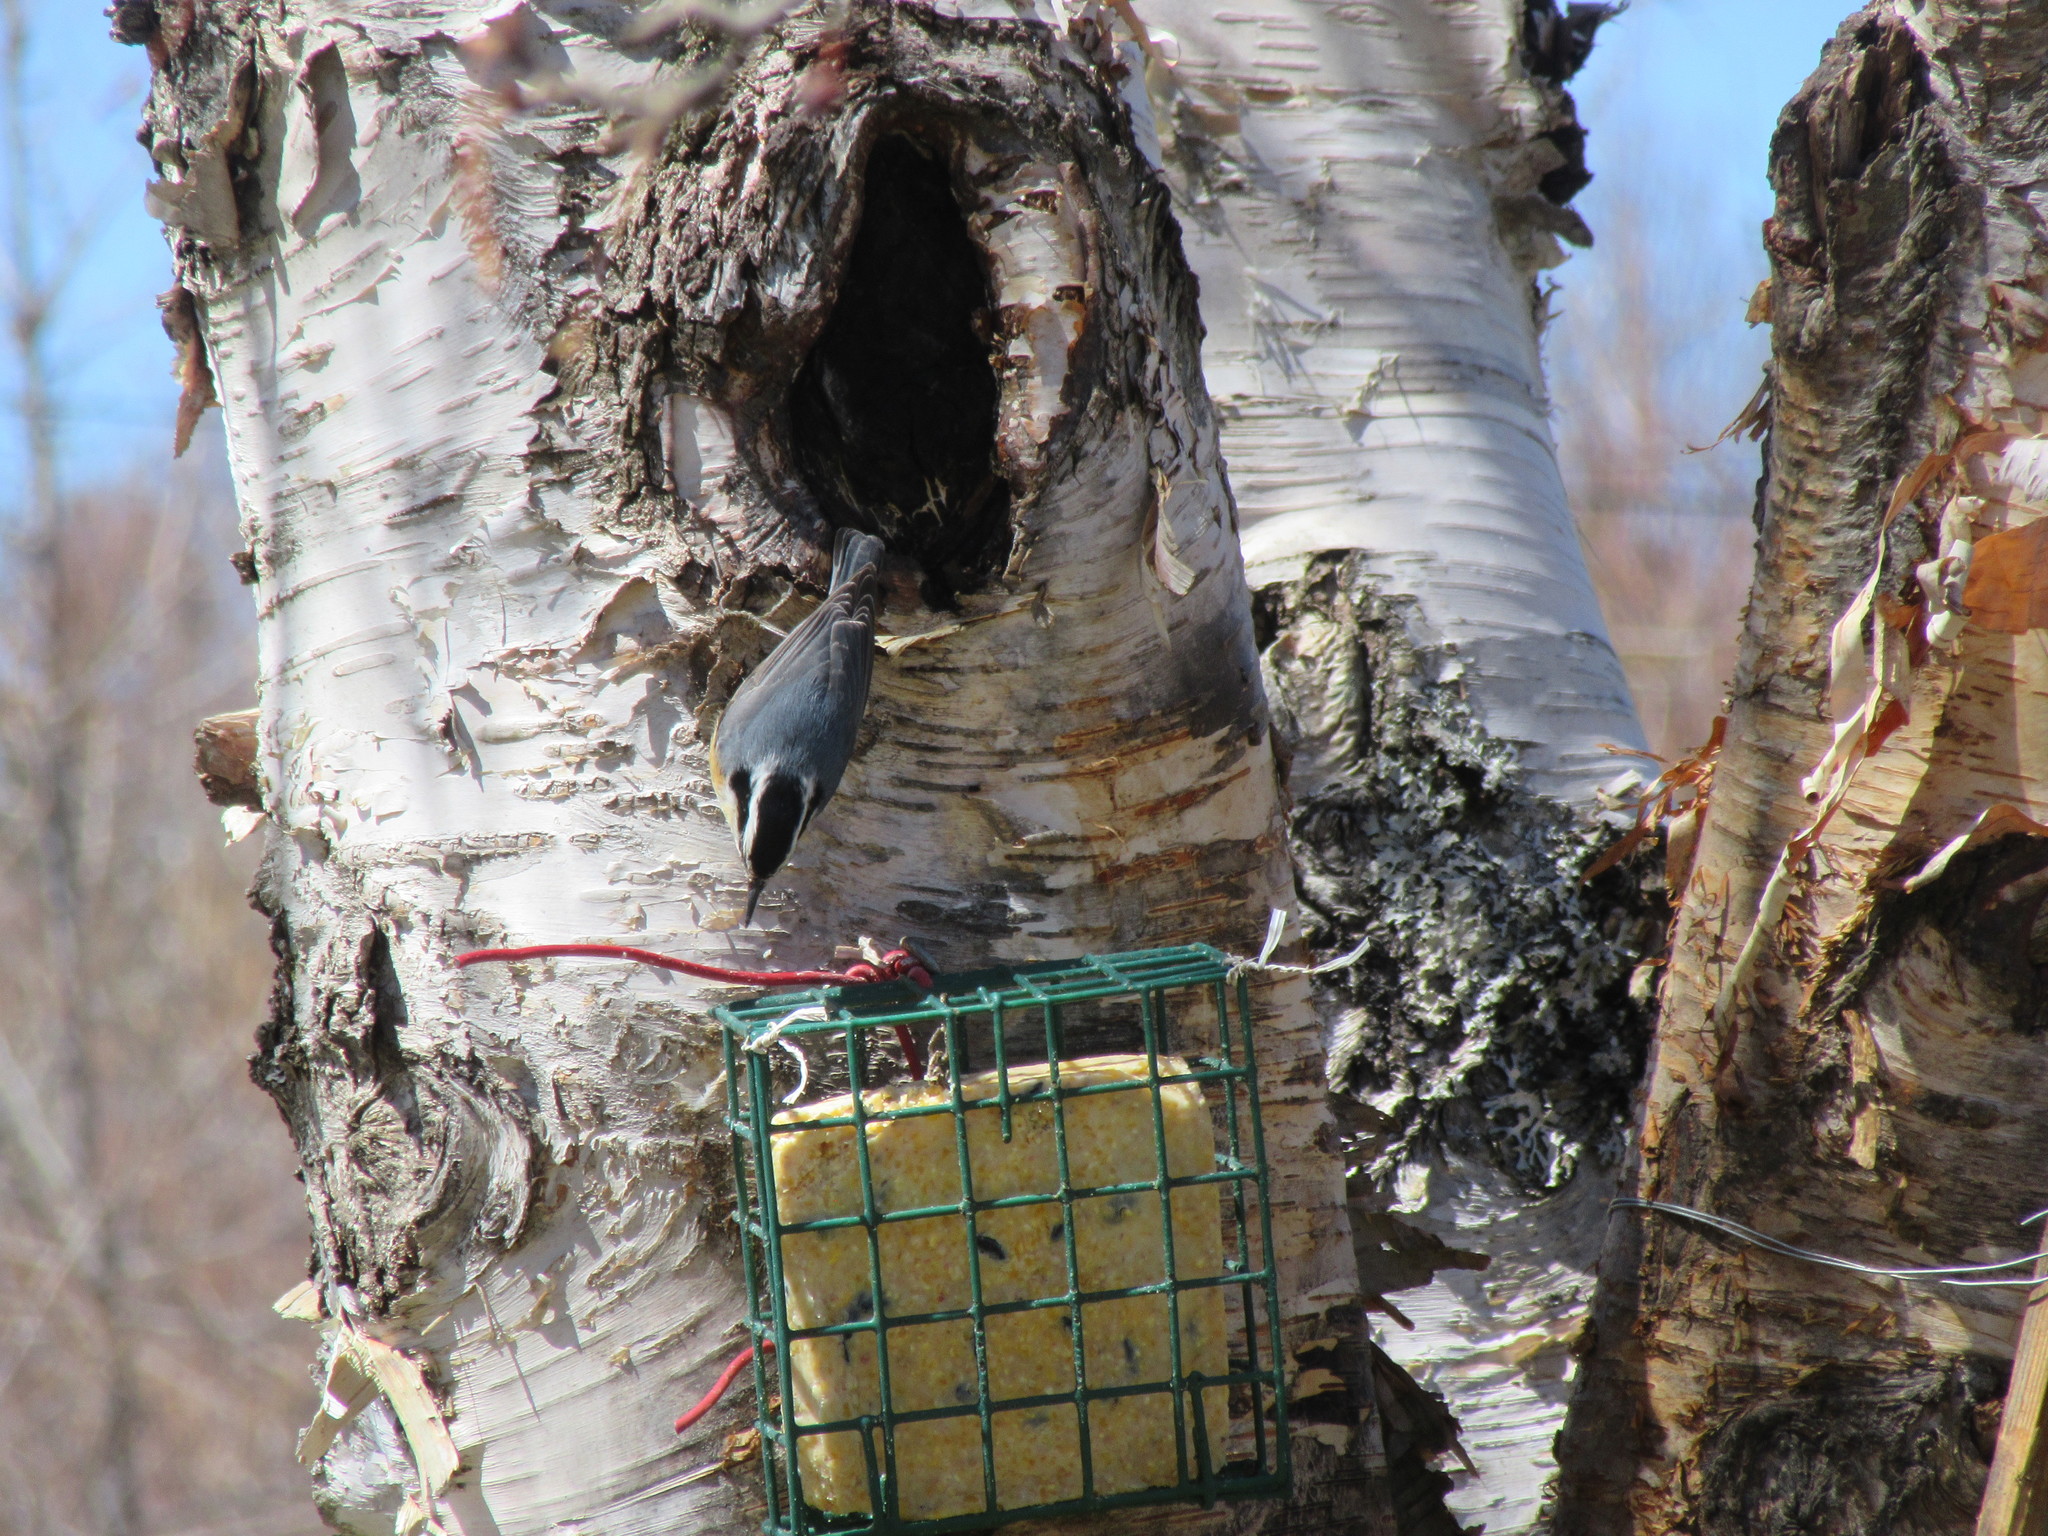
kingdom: Animalia
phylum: Chordata
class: Aves
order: Passeriformes
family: Sittidae
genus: Sitta
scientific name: Sitta canadensis
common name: Red-breasted nuthatch
